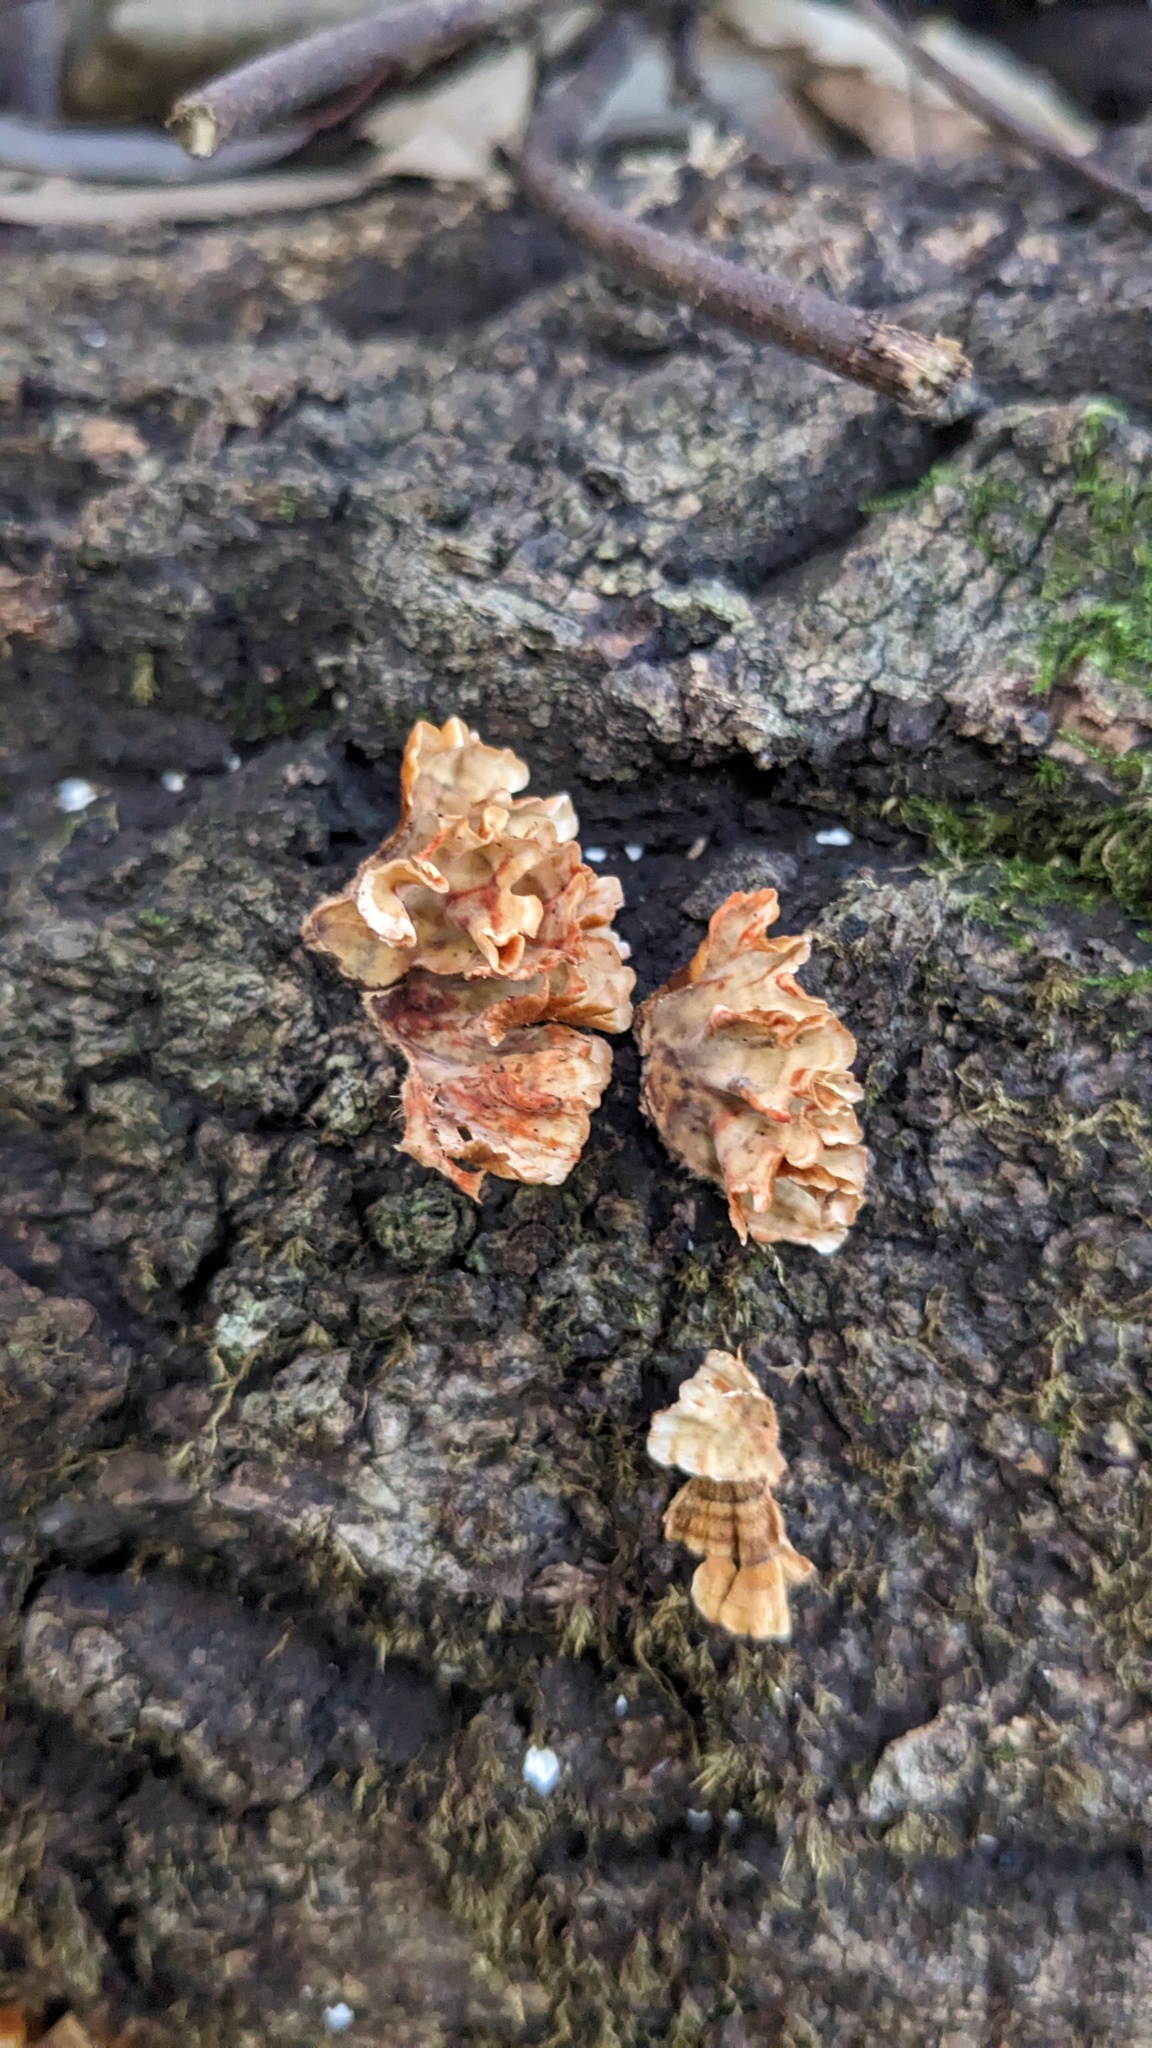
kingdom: Fungi
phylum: Basidiomycota
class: Agaricomycetes
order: Russulales
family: Stereaceae
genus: Stereum
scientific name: Stereum gausapatum
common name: Bleeding oak crust
